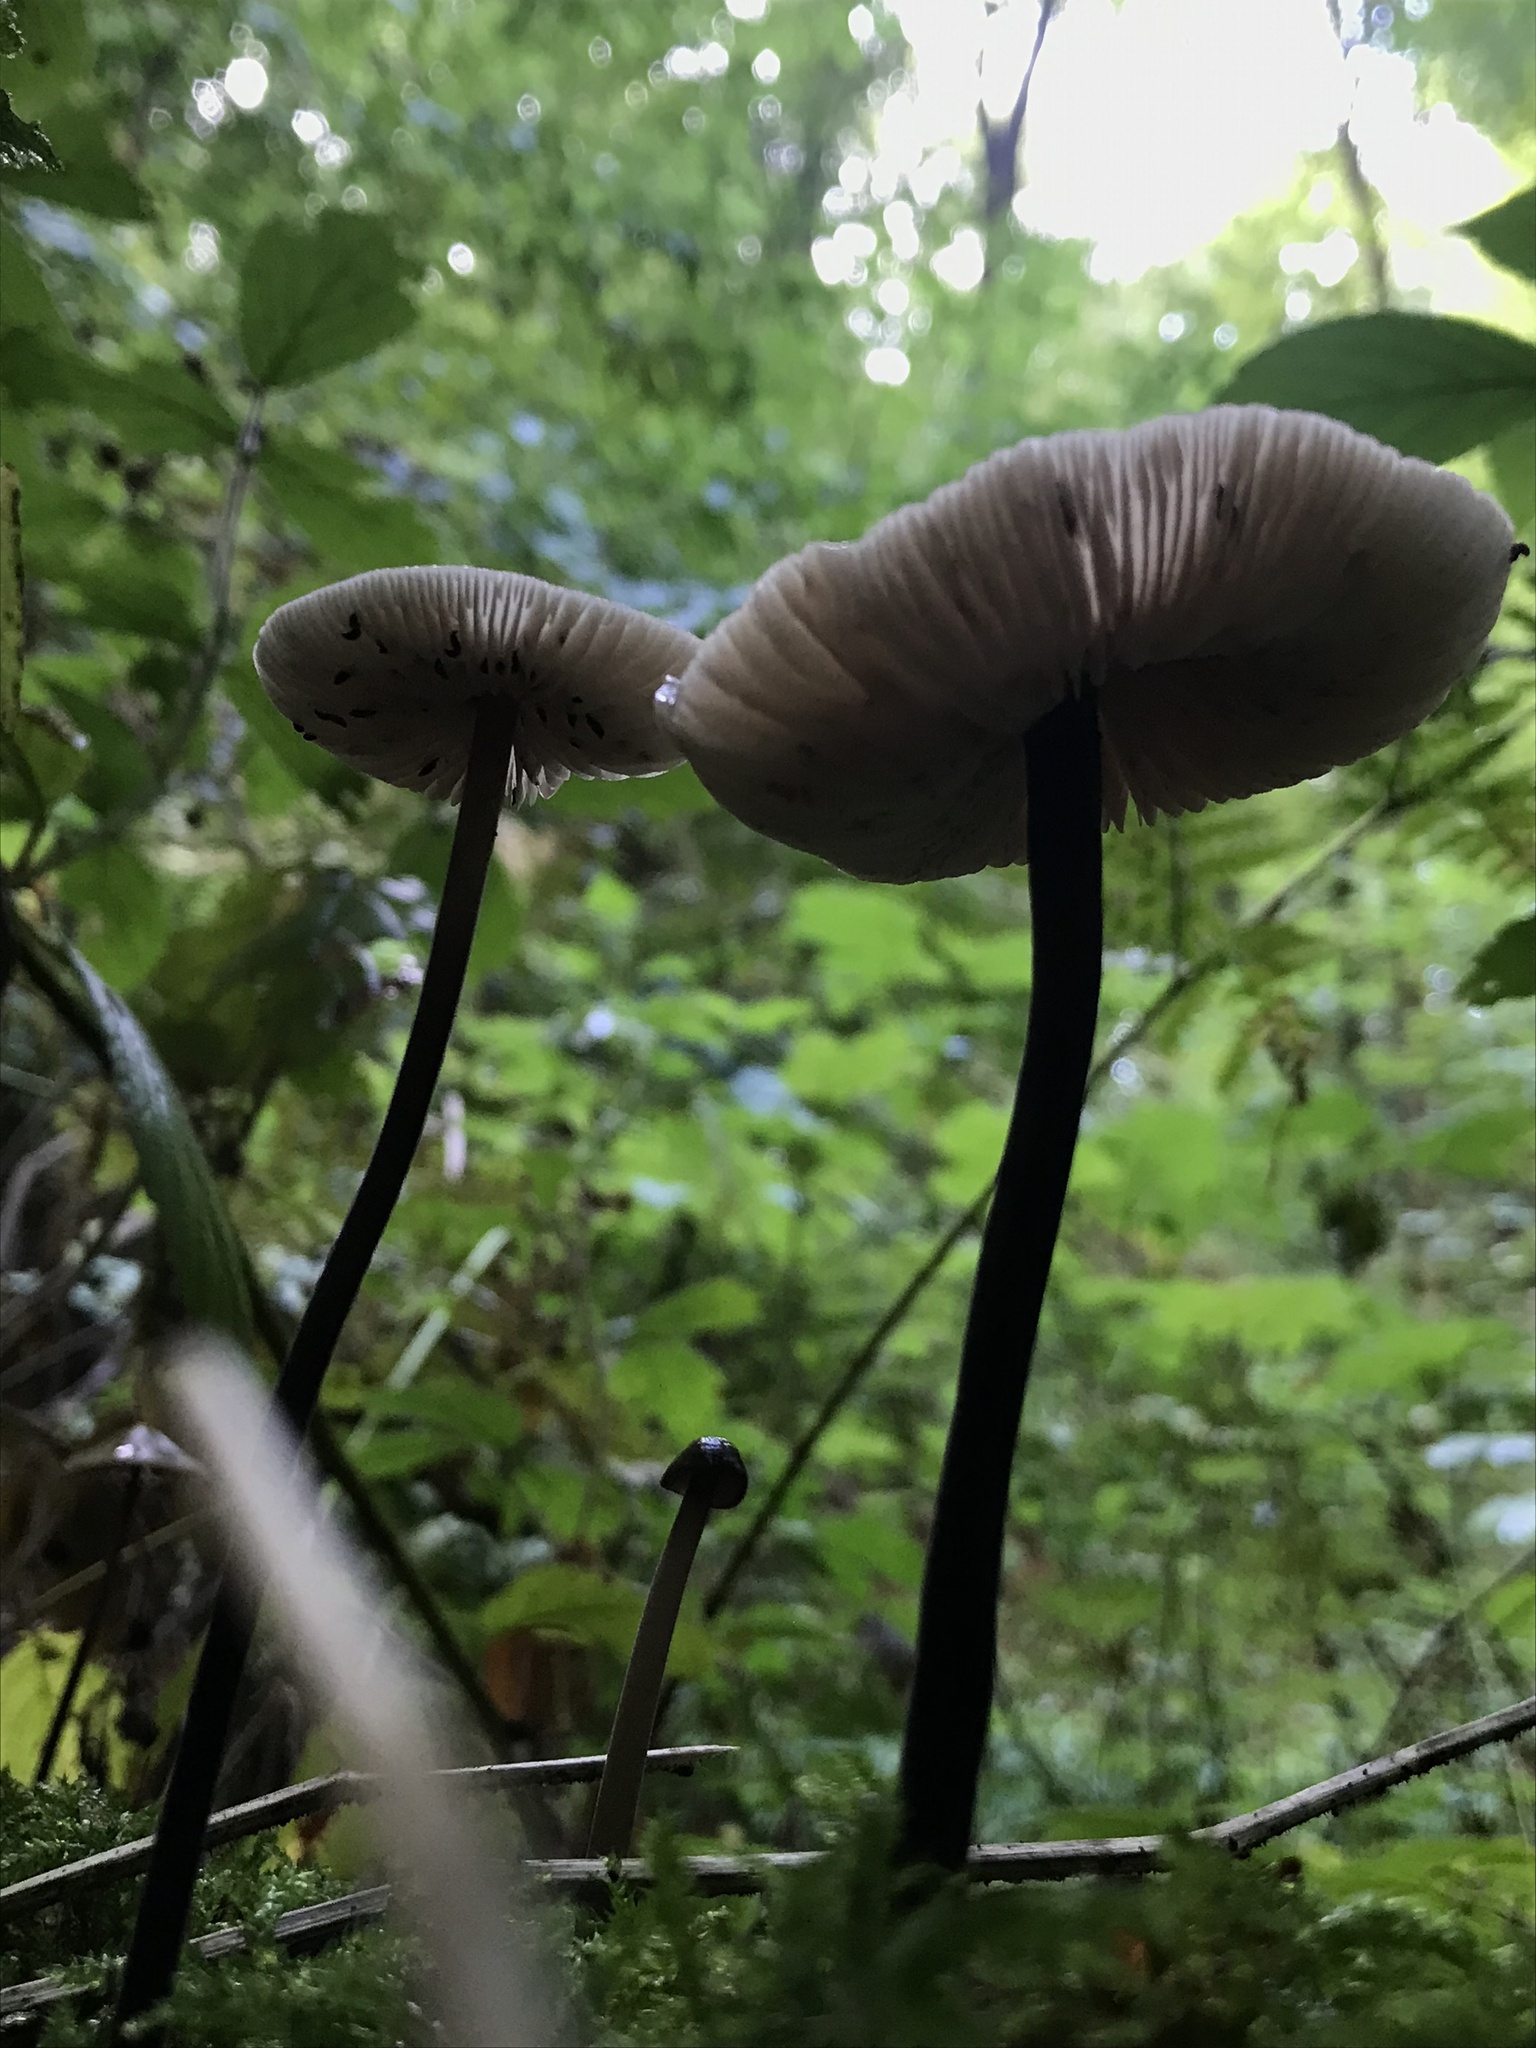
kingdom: Fungi
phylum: Basidiomycota
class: Agaricomycetes
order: Agaricales
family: Omphalotaceae
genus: Mycetinis
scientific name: Mycetinis alliaceus
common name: Garlic parachute
